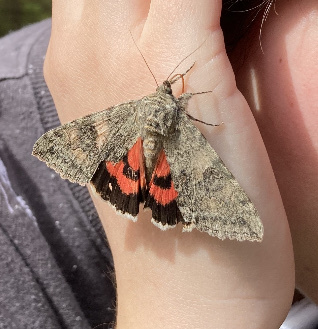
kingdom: Animalia
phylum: Arthropoda
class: Insecta
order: Lepidoptera
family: Erebidae
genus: Catocala
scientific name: Catocala nupta
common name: Red underwing
